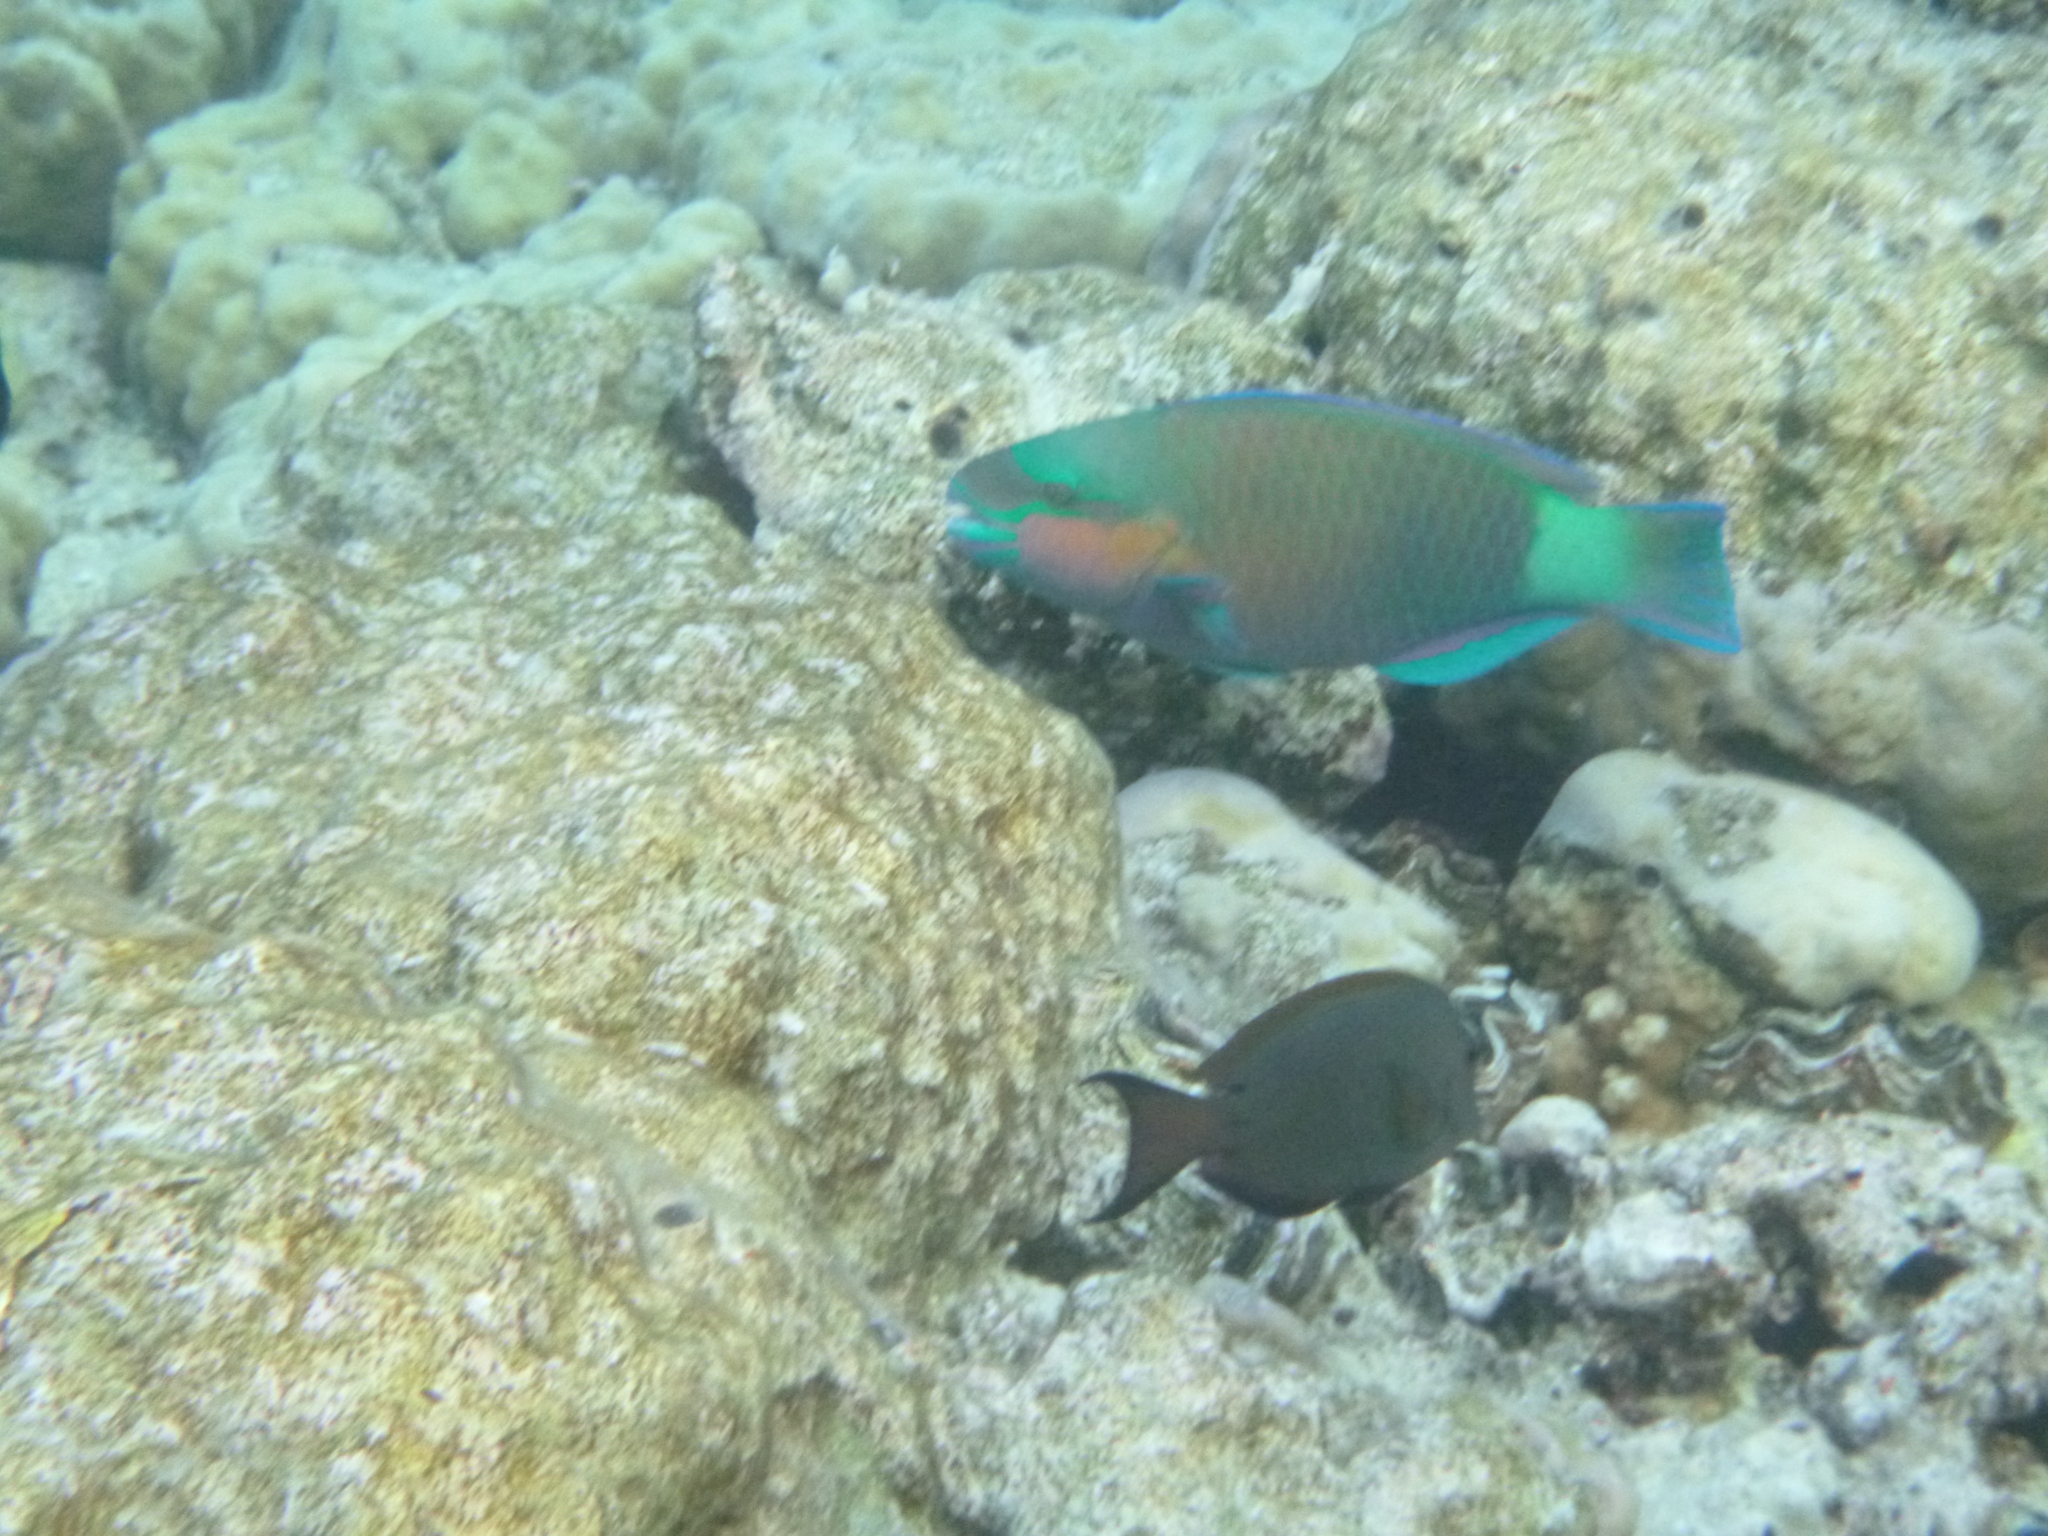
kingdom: Animalia
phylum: Chordata
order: Perciformes
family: Scaridae
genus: Chlorurus
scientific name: Chlorurus sordidus
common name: Bullethead parrotfish
